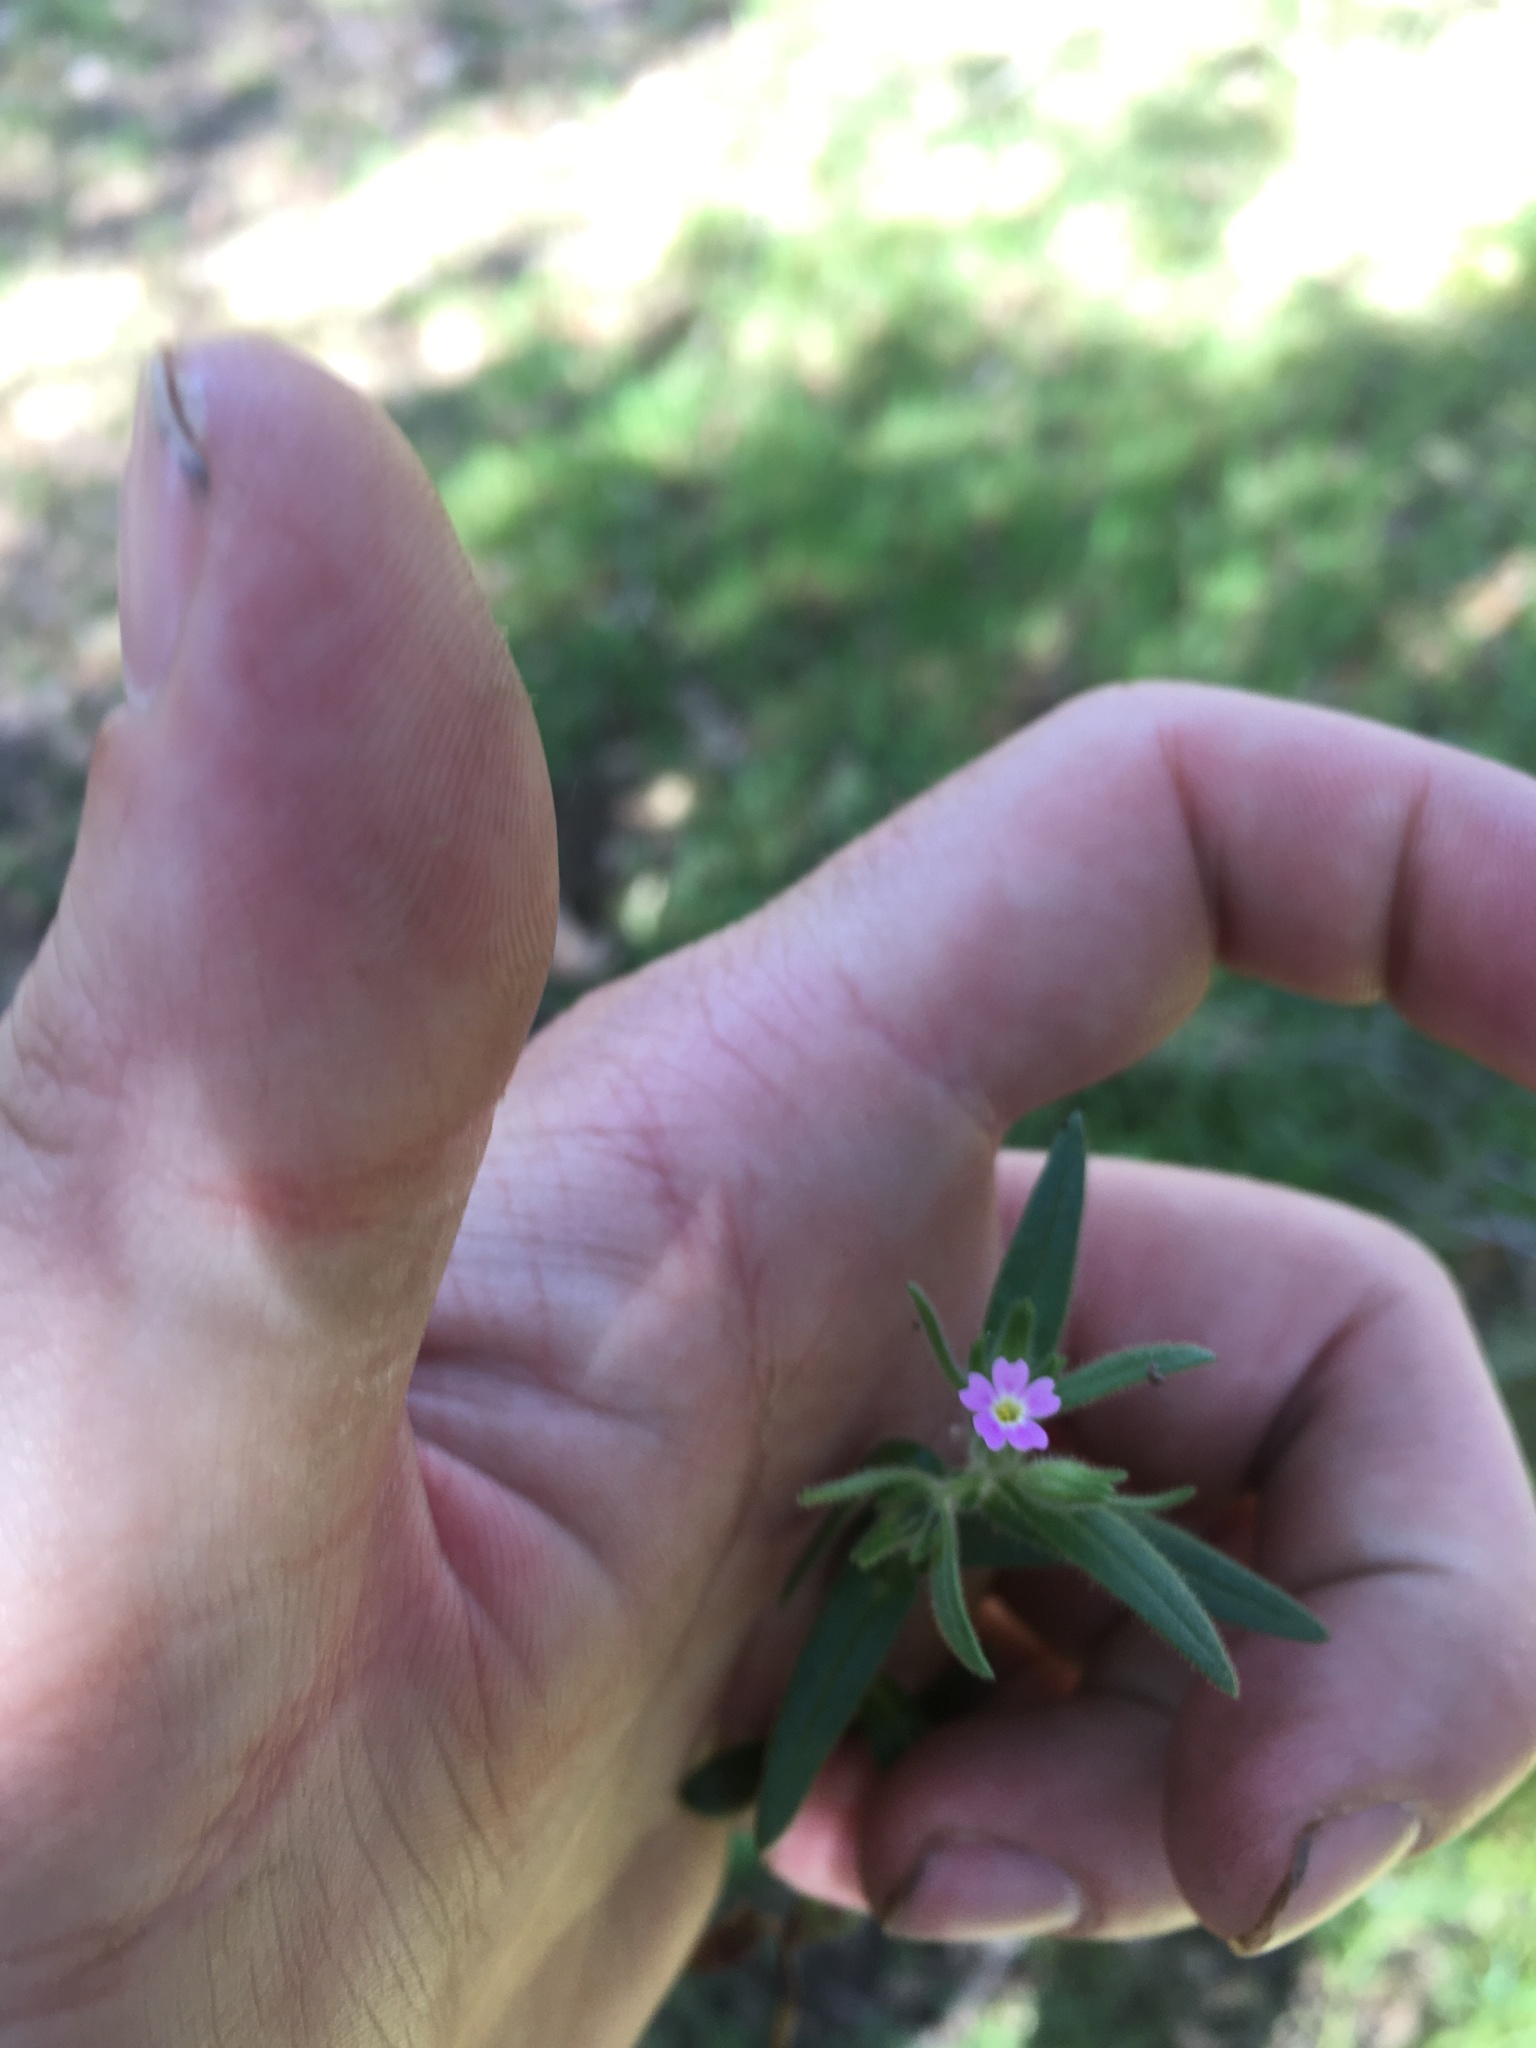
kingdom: Plantae
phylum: Tracheophyta
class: Magnoliopsida
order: Ericales
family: Polemoniaceae
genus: Phlox
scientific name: Phlox gracilis
